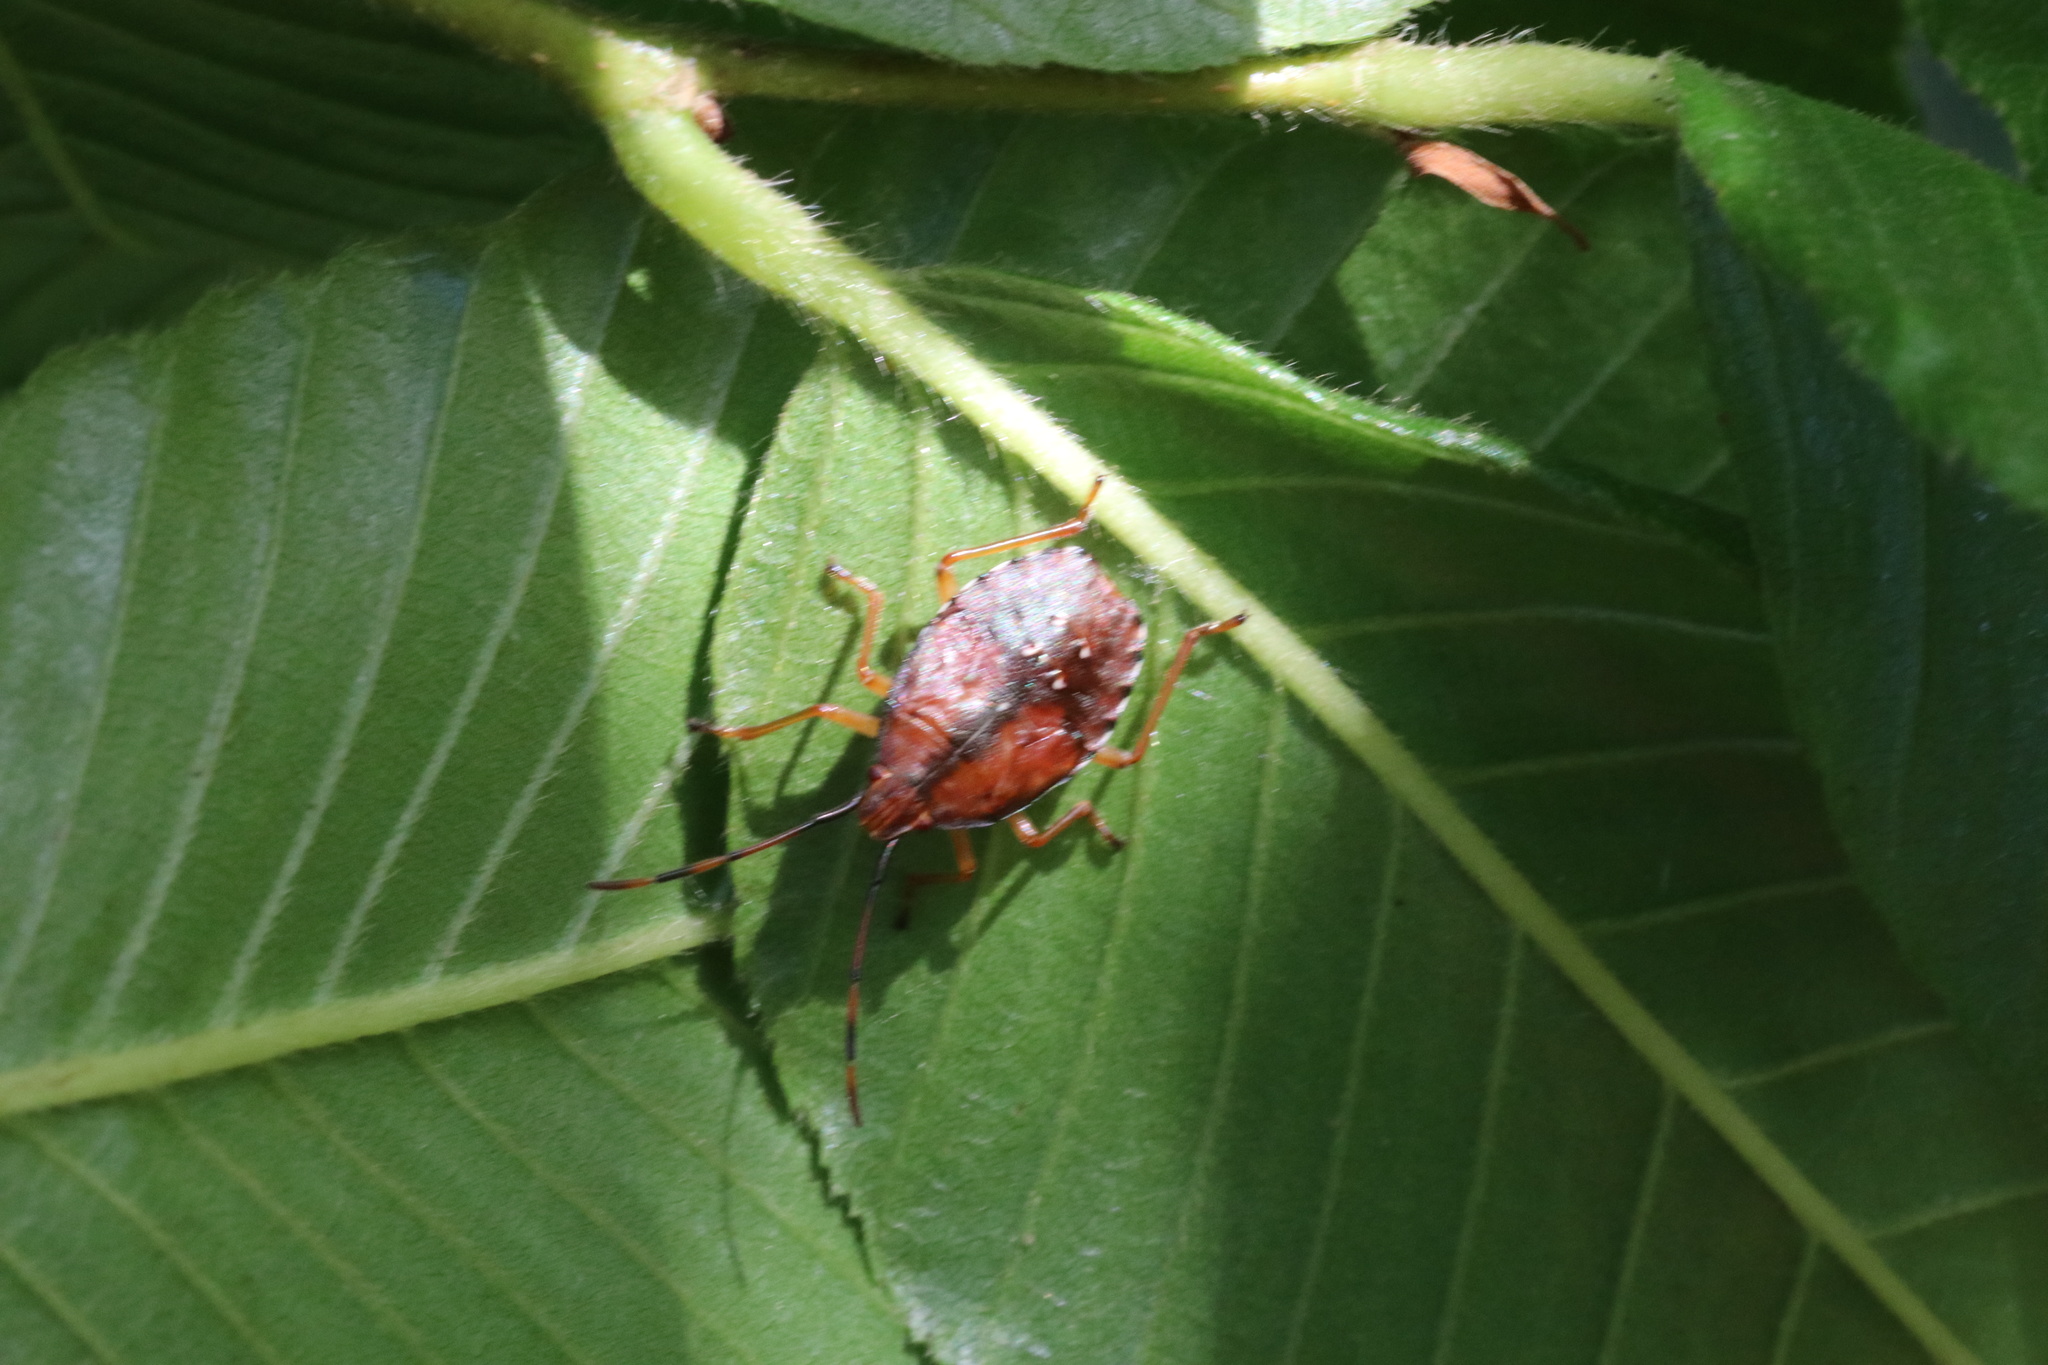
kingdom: Animalia
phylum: Arthropoda
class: Insecta
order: Hemiptera
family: Acanthosomatidae
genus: Planois
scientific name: Planois gayi
